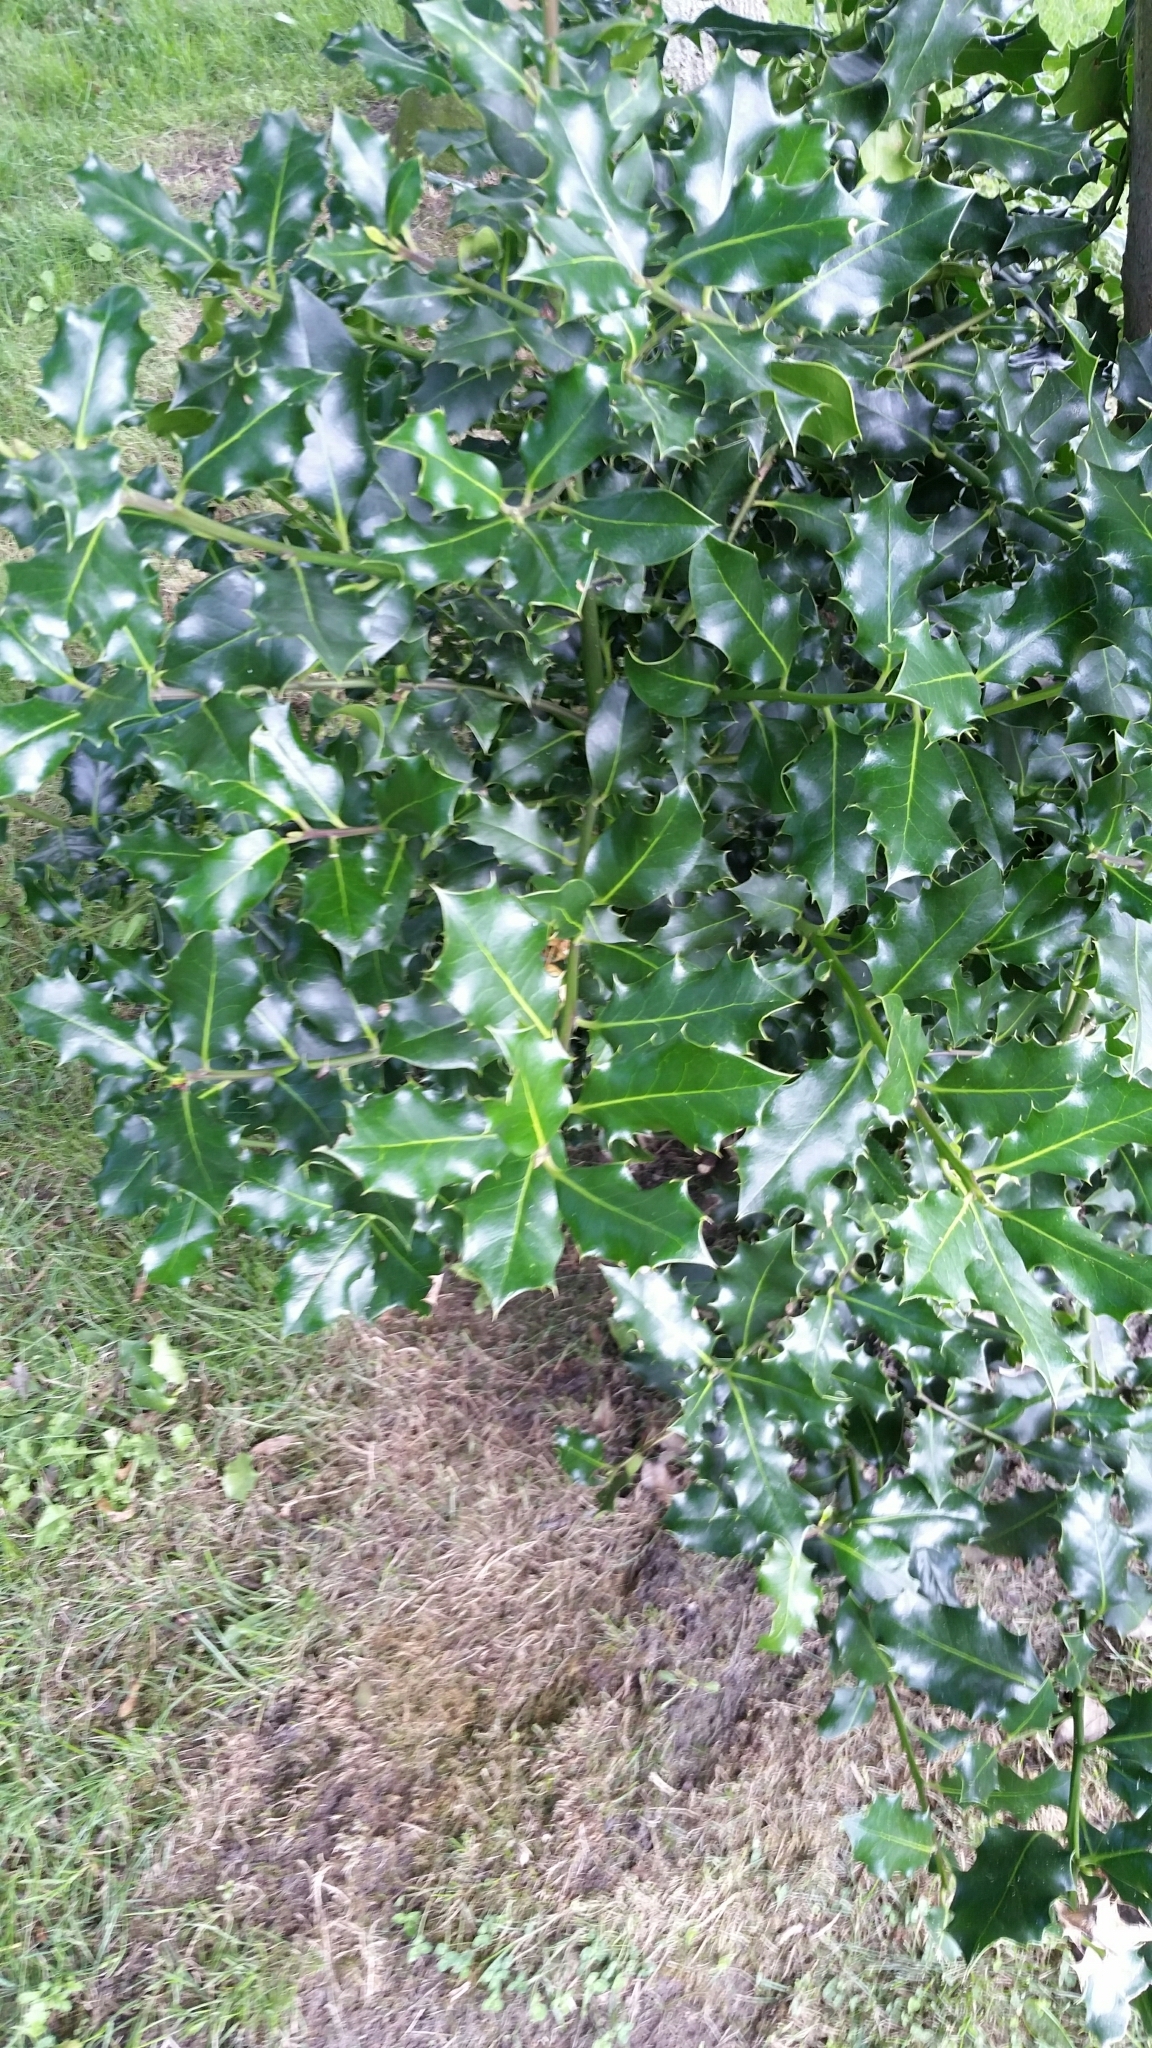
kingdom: Plantae
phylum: Tracheophyta
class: Magnoliopsida
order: Aquifoliales
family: Aquifoliaceae
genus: Ilex
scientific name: Ilex aquifolium
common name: English holly
